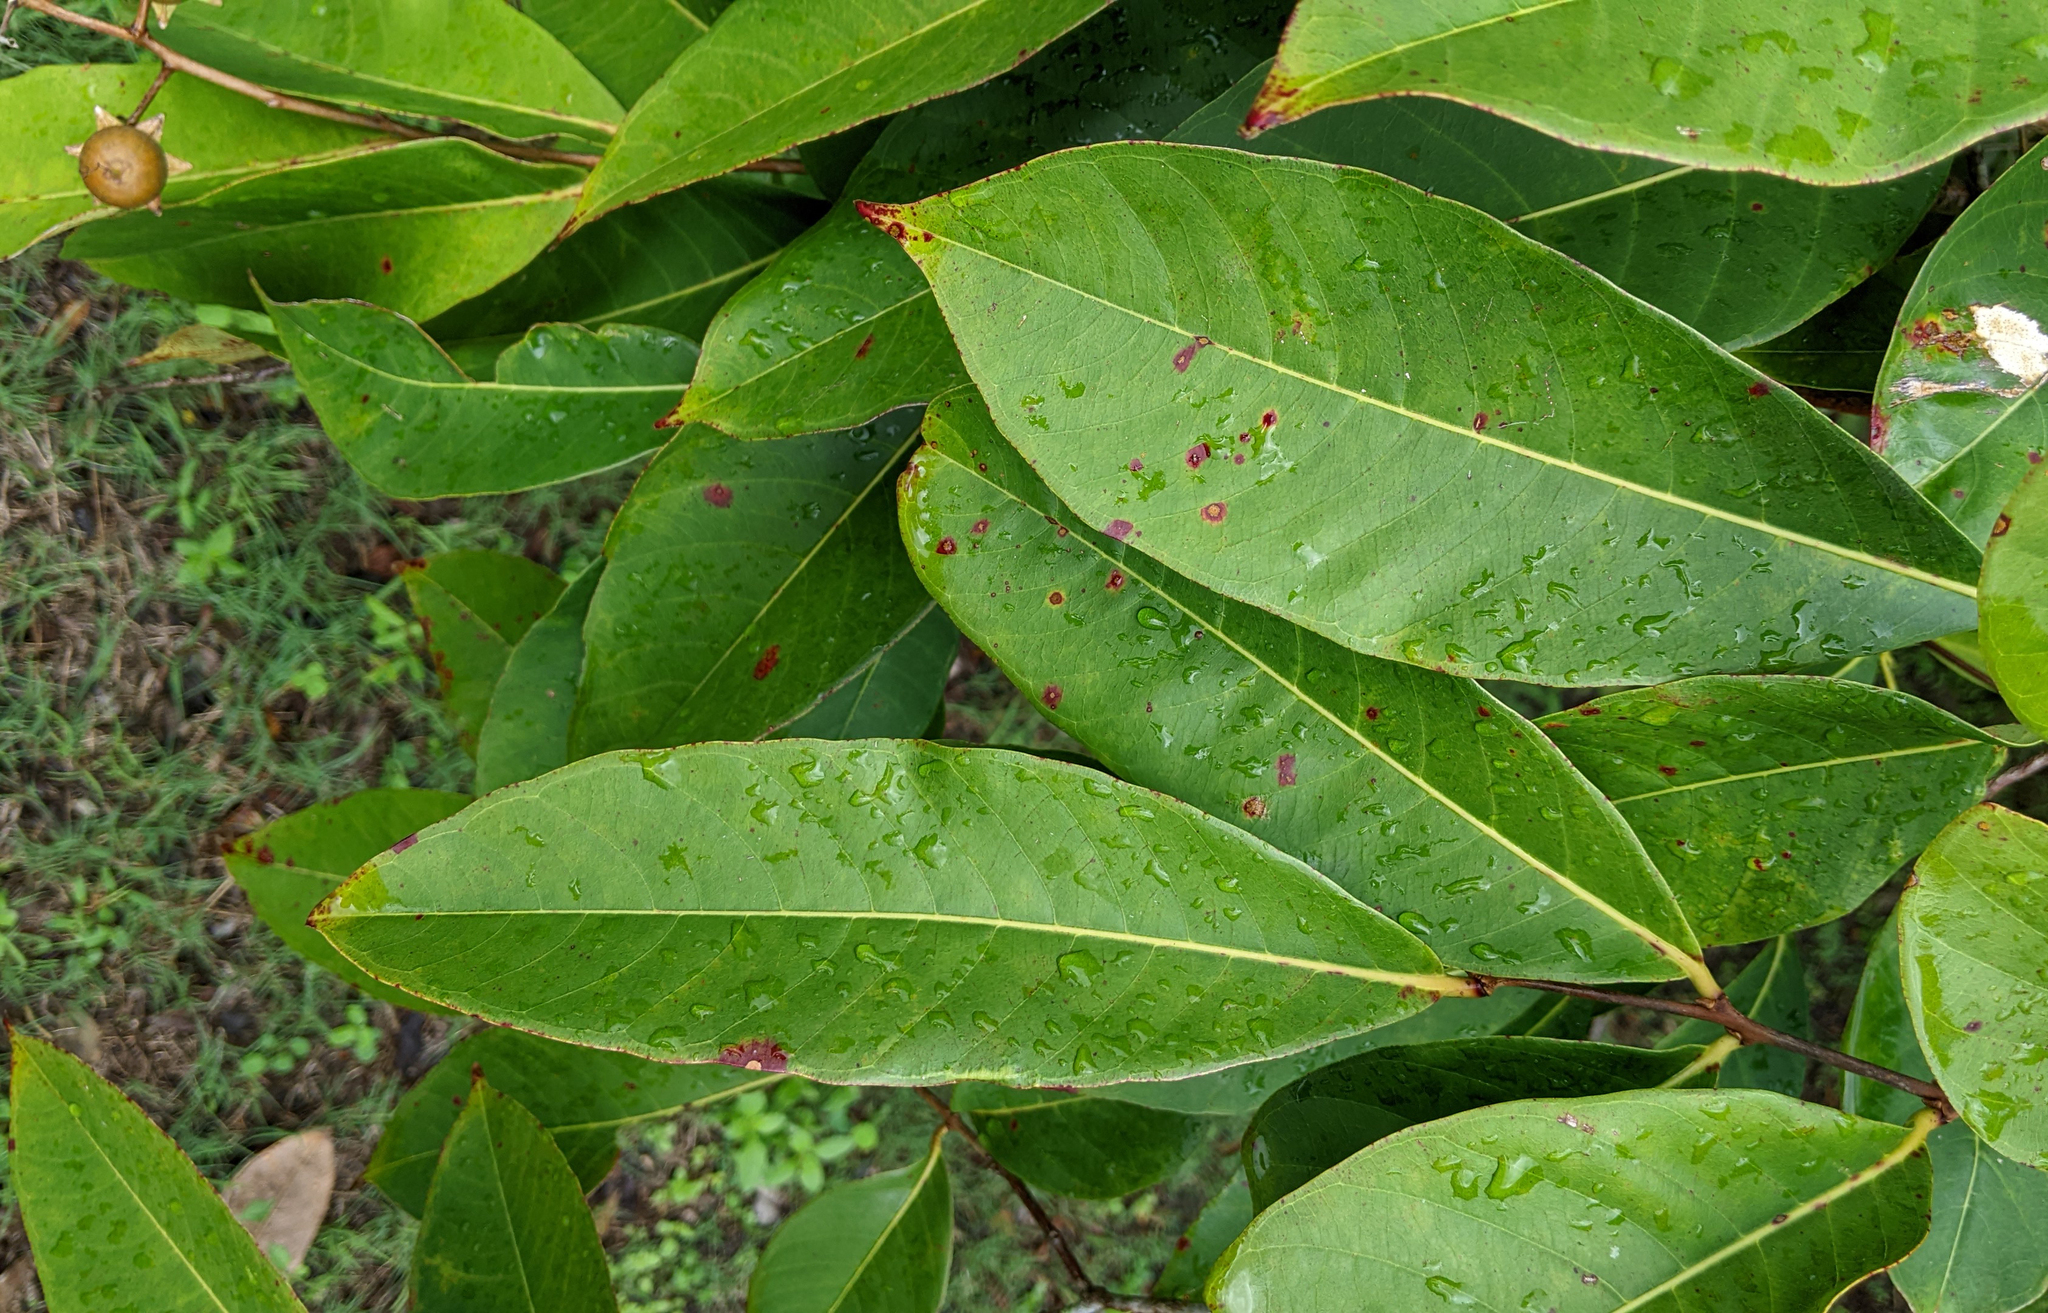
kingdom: Plantae
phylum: Tracheophyta
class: Magnoliopsida
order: Myrtales
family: Lythraceae
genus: Lagerstroemia
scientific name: Lagerstroemia speciosa
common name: Queen's crape-myrtle
